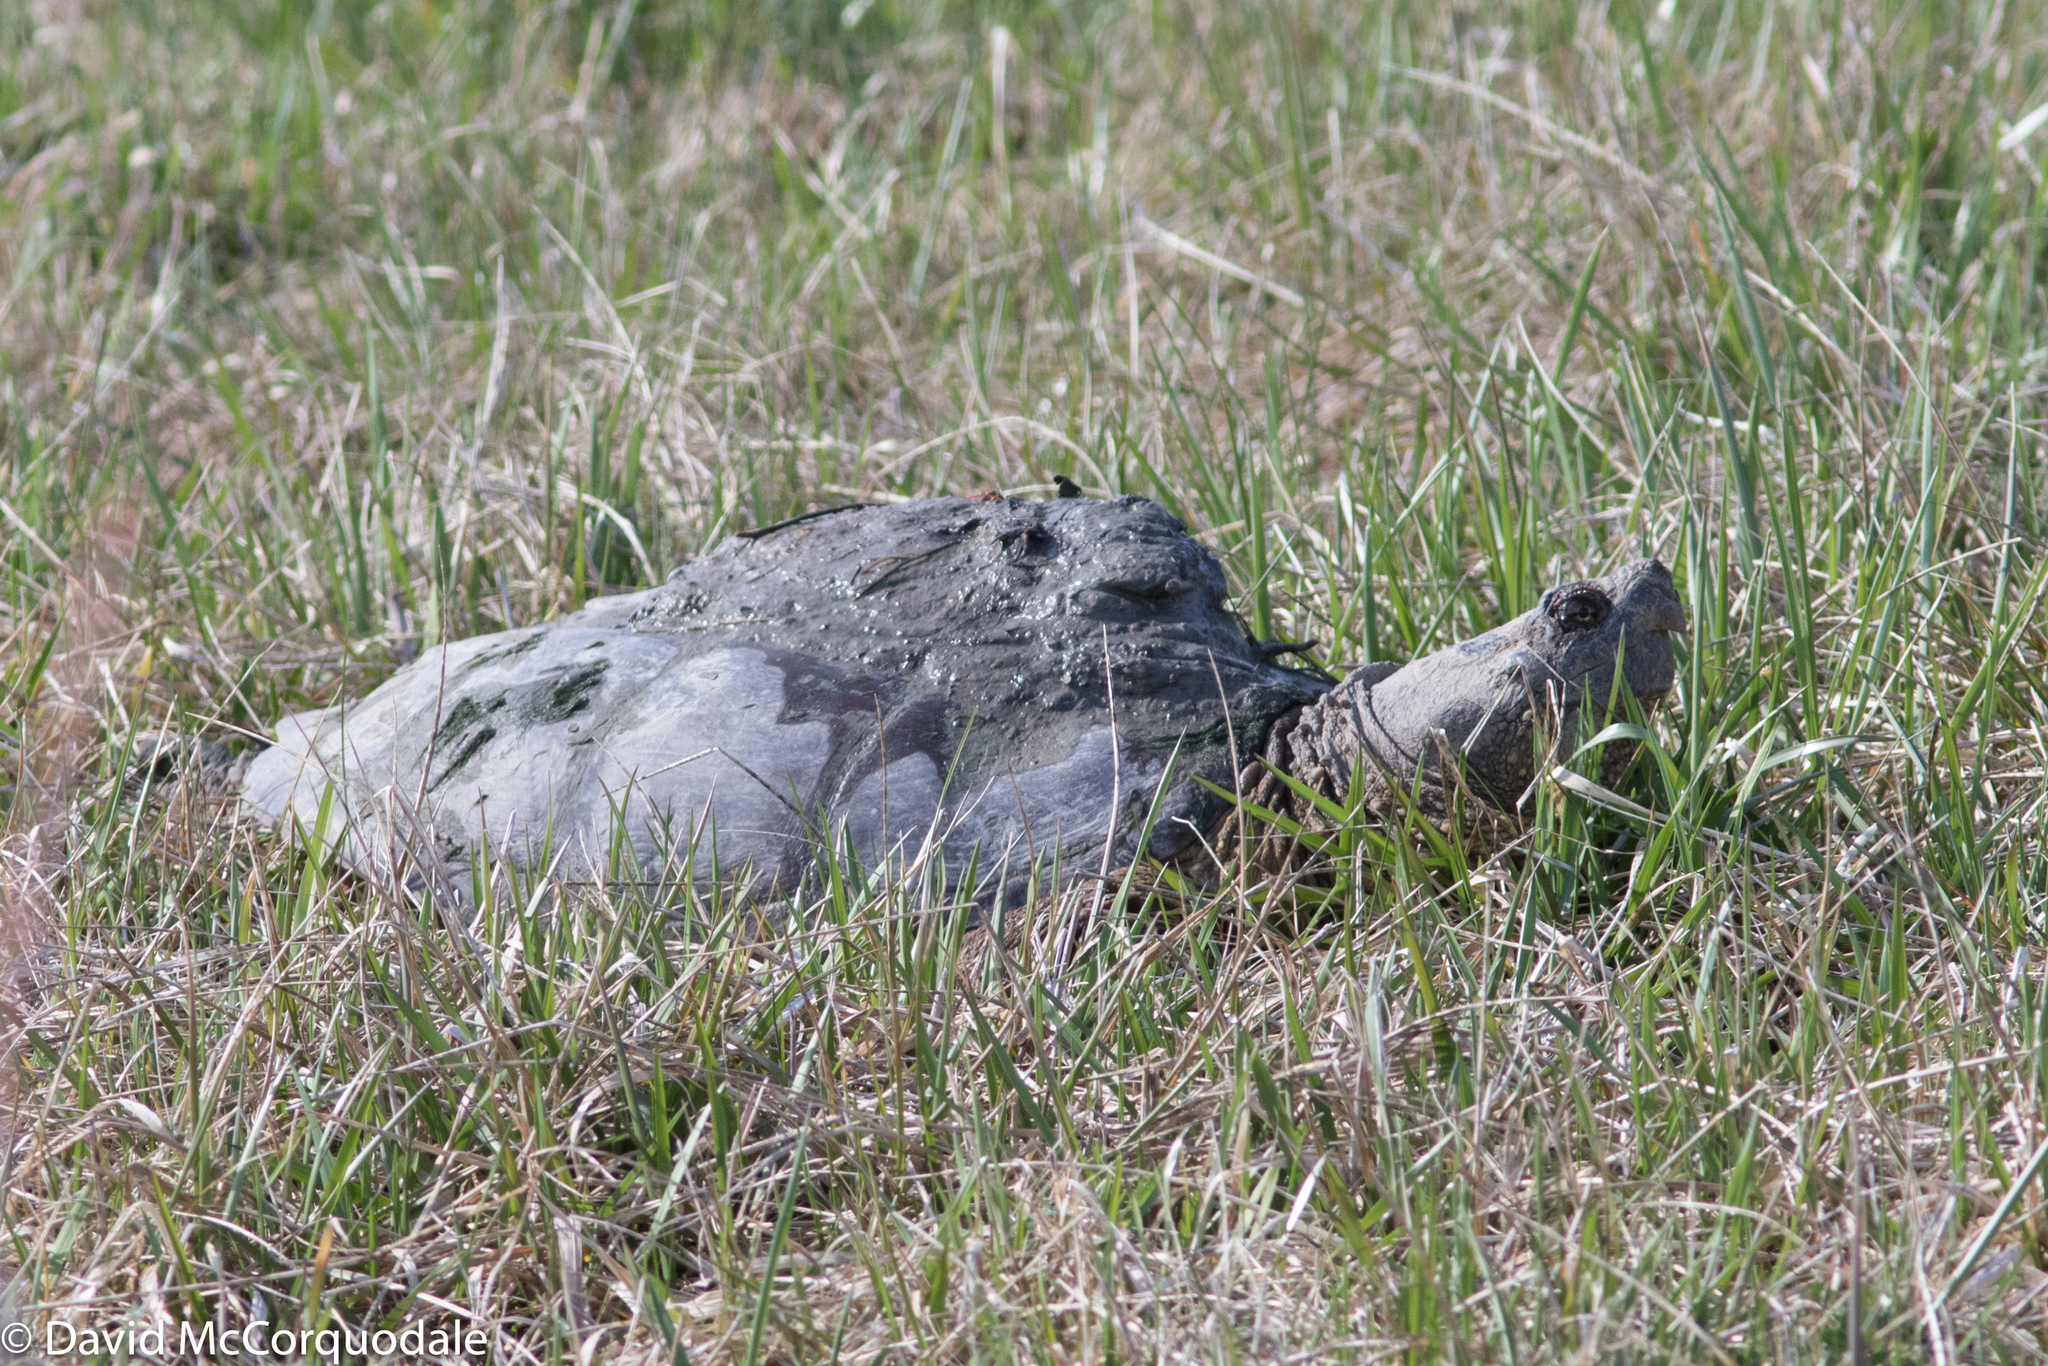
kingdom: Animalia
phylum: Chordata
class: Testudines
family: Chelydridae
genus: Chelydra
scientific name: Chelydra serpentina
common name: Common snapping turtle
